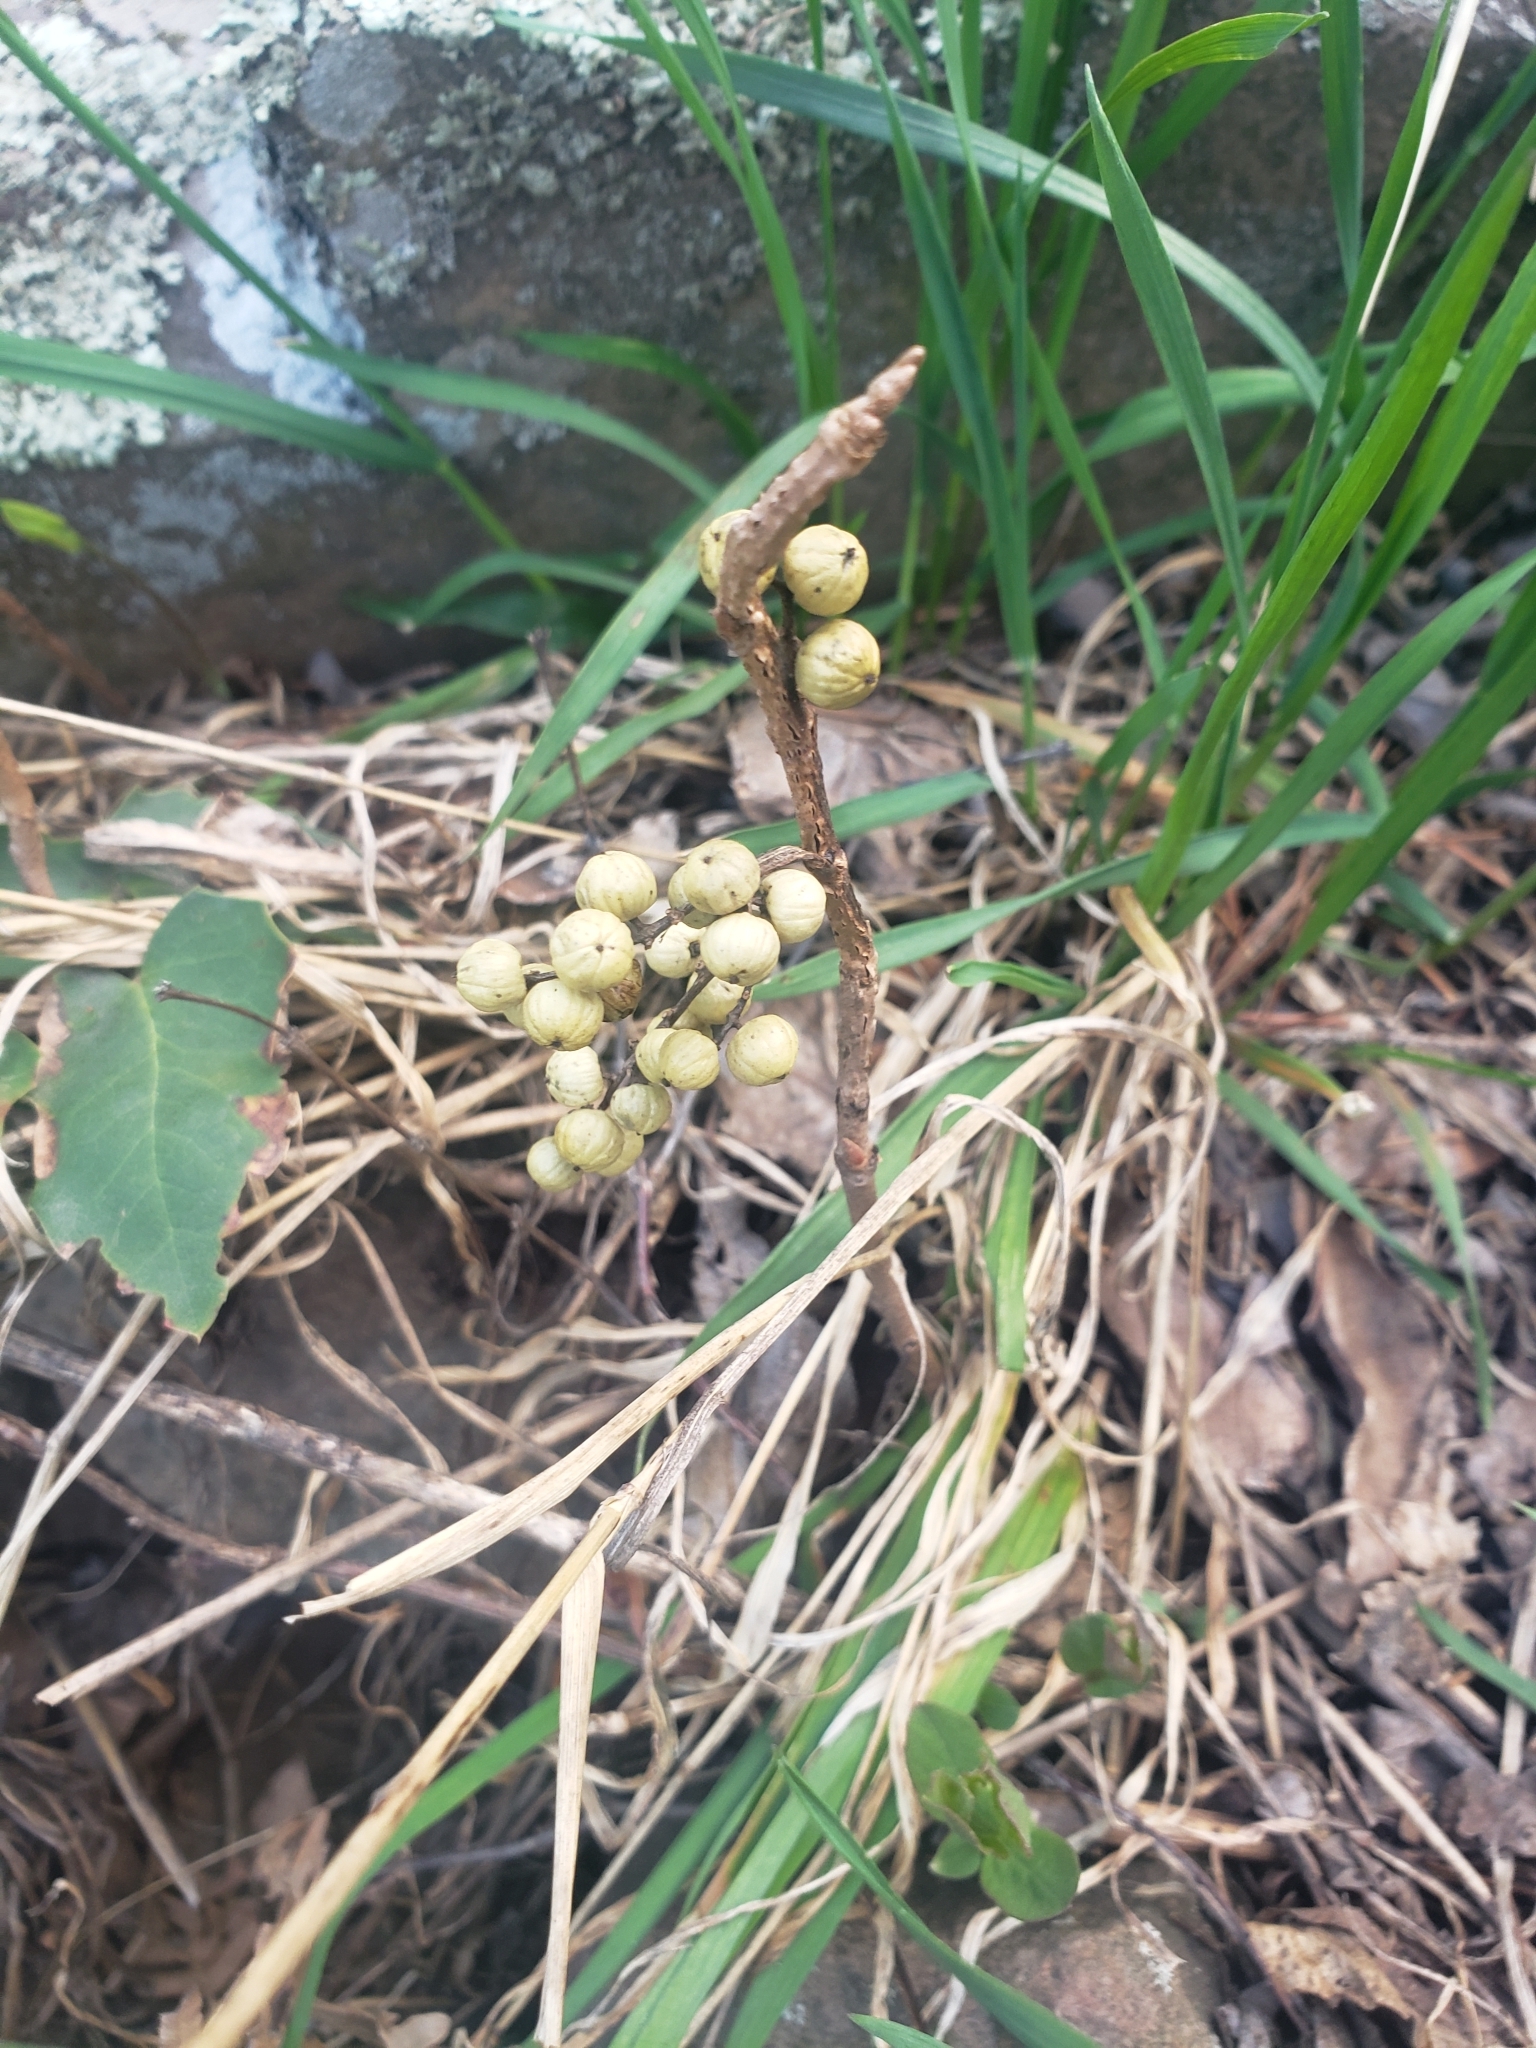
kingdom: Plantae
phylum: Tracheophyta
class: Magnoliopsida
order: Sapindales
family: Anacardiaceae
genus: Toxicodendron
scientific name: Toxicodendron rydbergii
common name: Rydberg's poison-ivy
